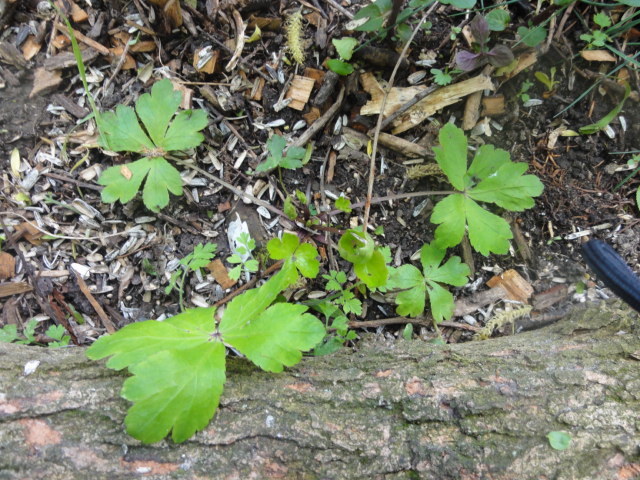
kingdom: Plantae
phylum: Tracheophyta
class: Magnoliopsida
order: Apiales
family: Apiaceae
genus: Sanicula
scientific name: Sanicula europaea
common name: Sanicle
